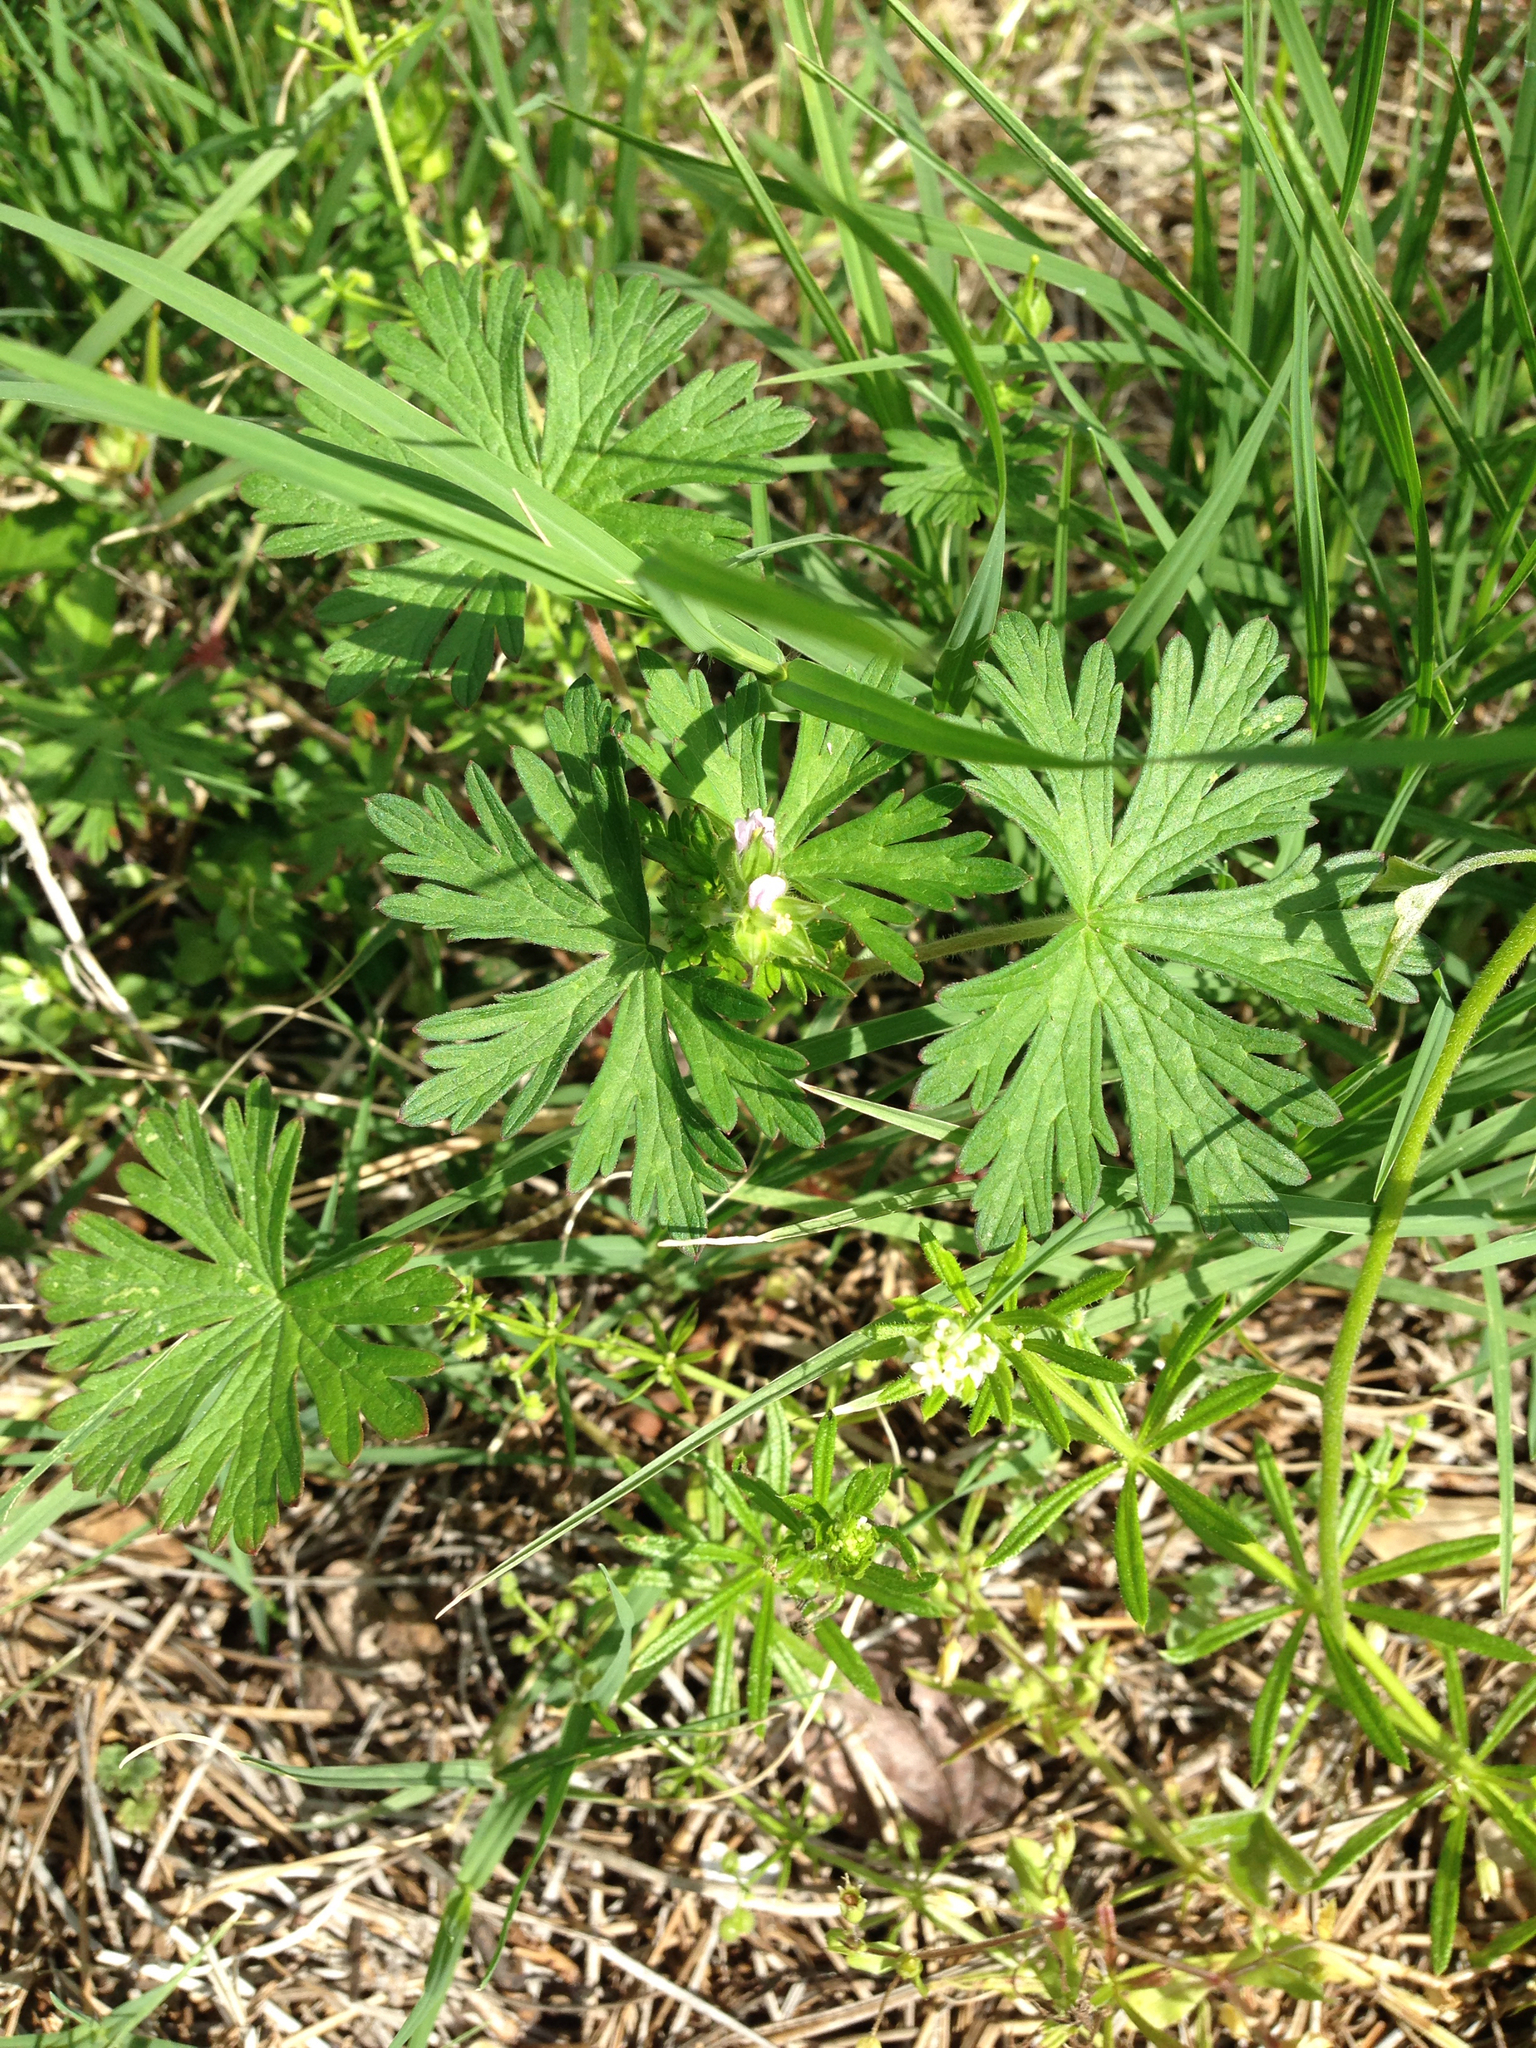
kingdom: Plantae
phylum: Tracheophyta
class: Magnoliopsida
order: Geraniales
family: Geraniaceae
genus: Geranium
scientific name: Geranium carolinianum
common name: Carolina crane's-bill
